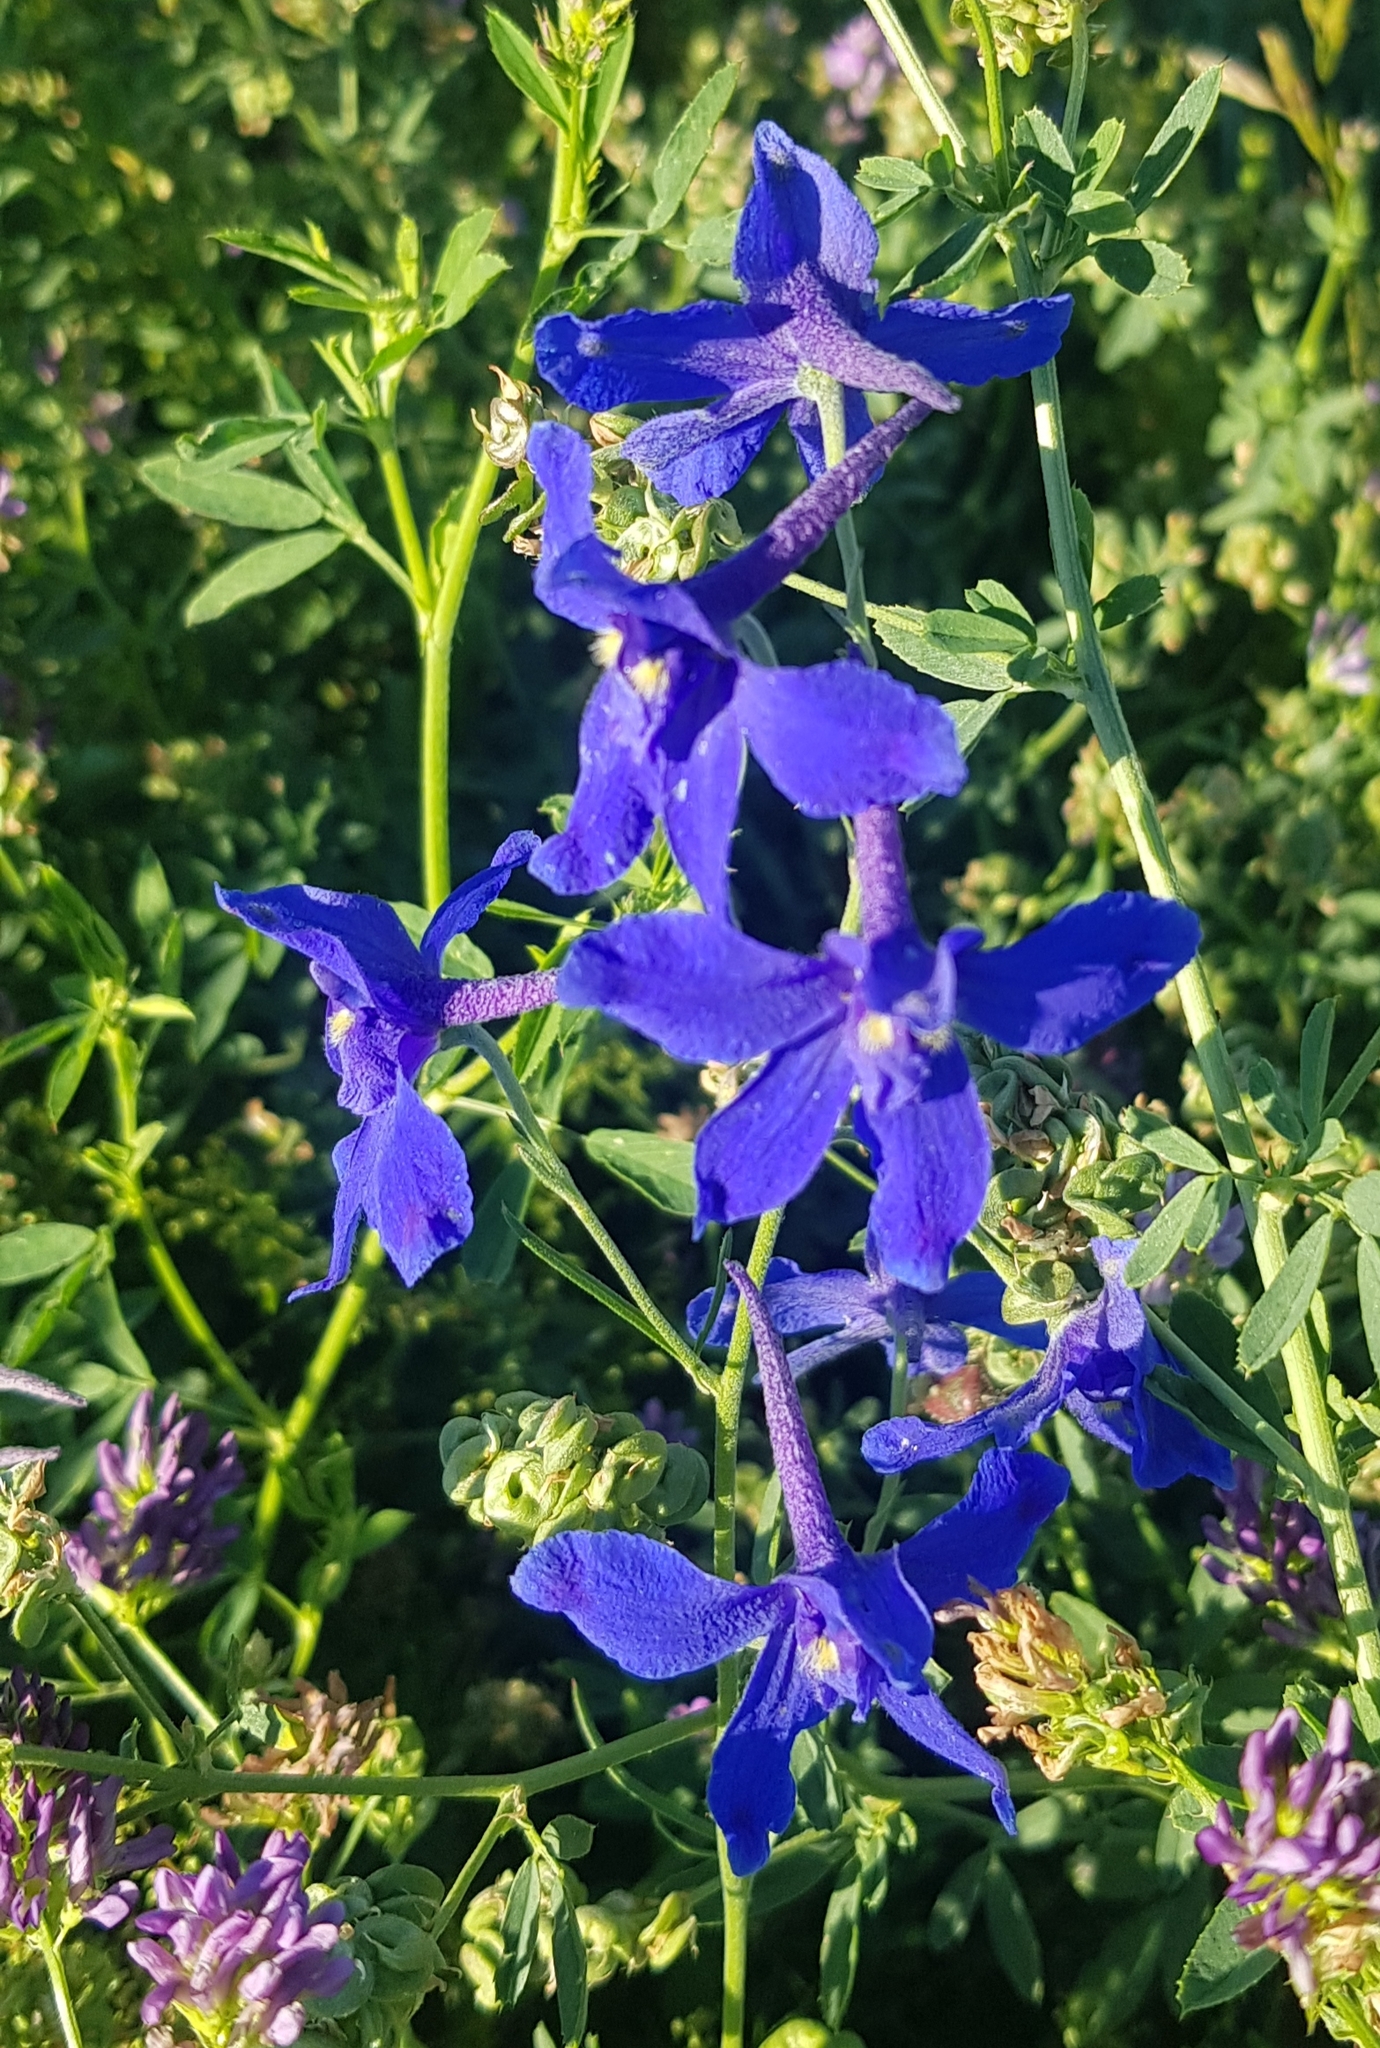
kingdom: Plantae
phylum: Tracheophyta
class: Magnoliopsida
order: Ranunculales
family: Ranunculaceae
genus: Delphinium
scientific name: Delphinium grandiflorum
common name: Siberian larkspur
